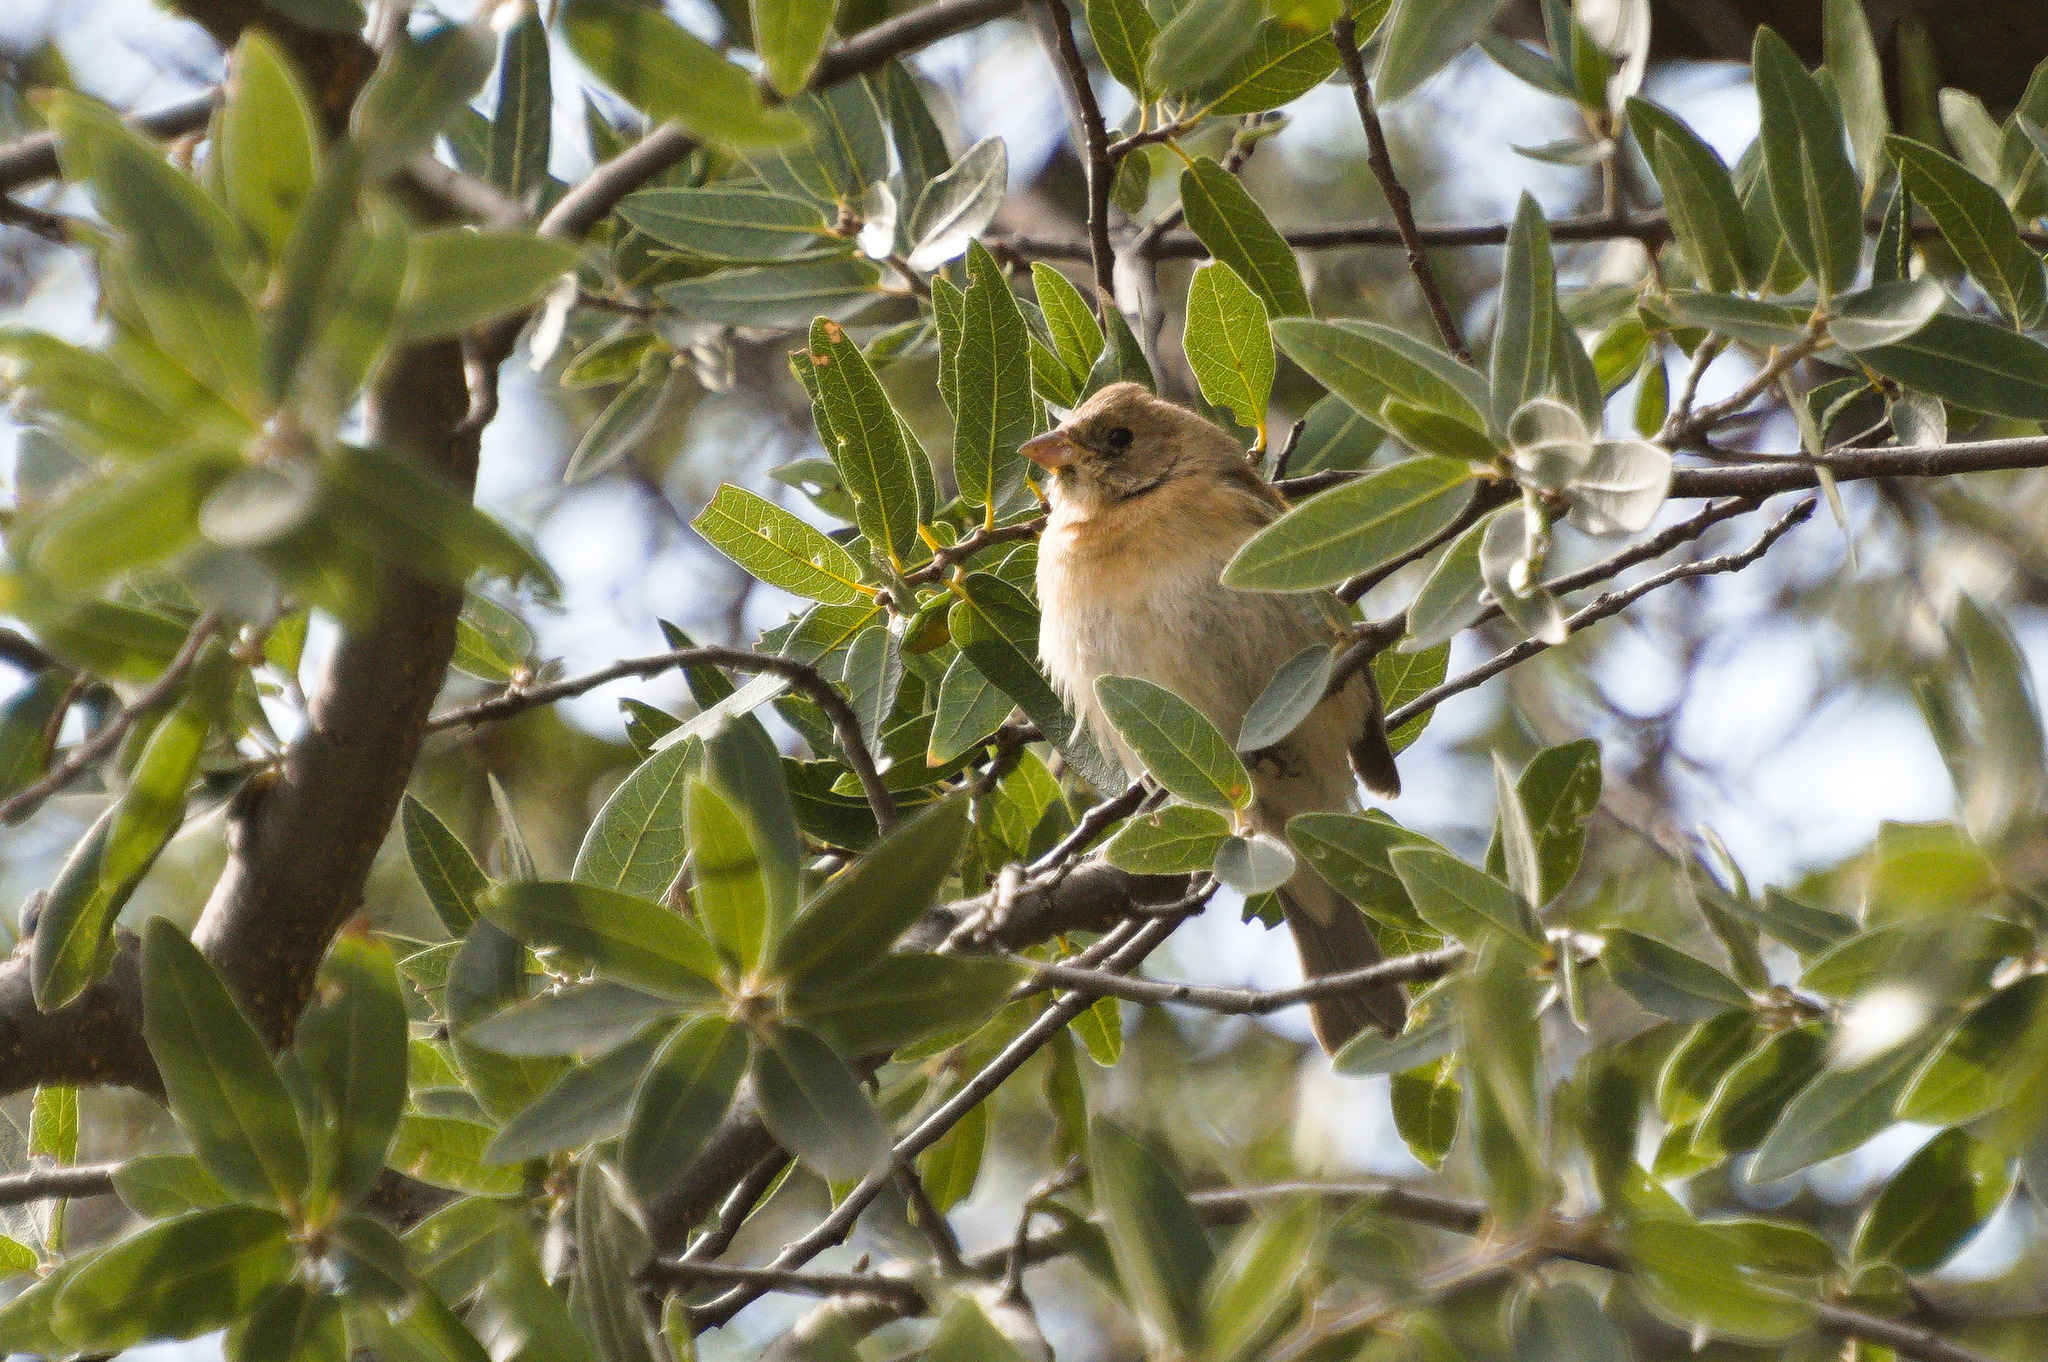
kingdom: Animalia
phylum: Chordata
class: Aves
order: Passeriformes
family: Cardinalidae
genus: Passerina
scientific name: Passerina amoena
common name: Lazuli bunting
